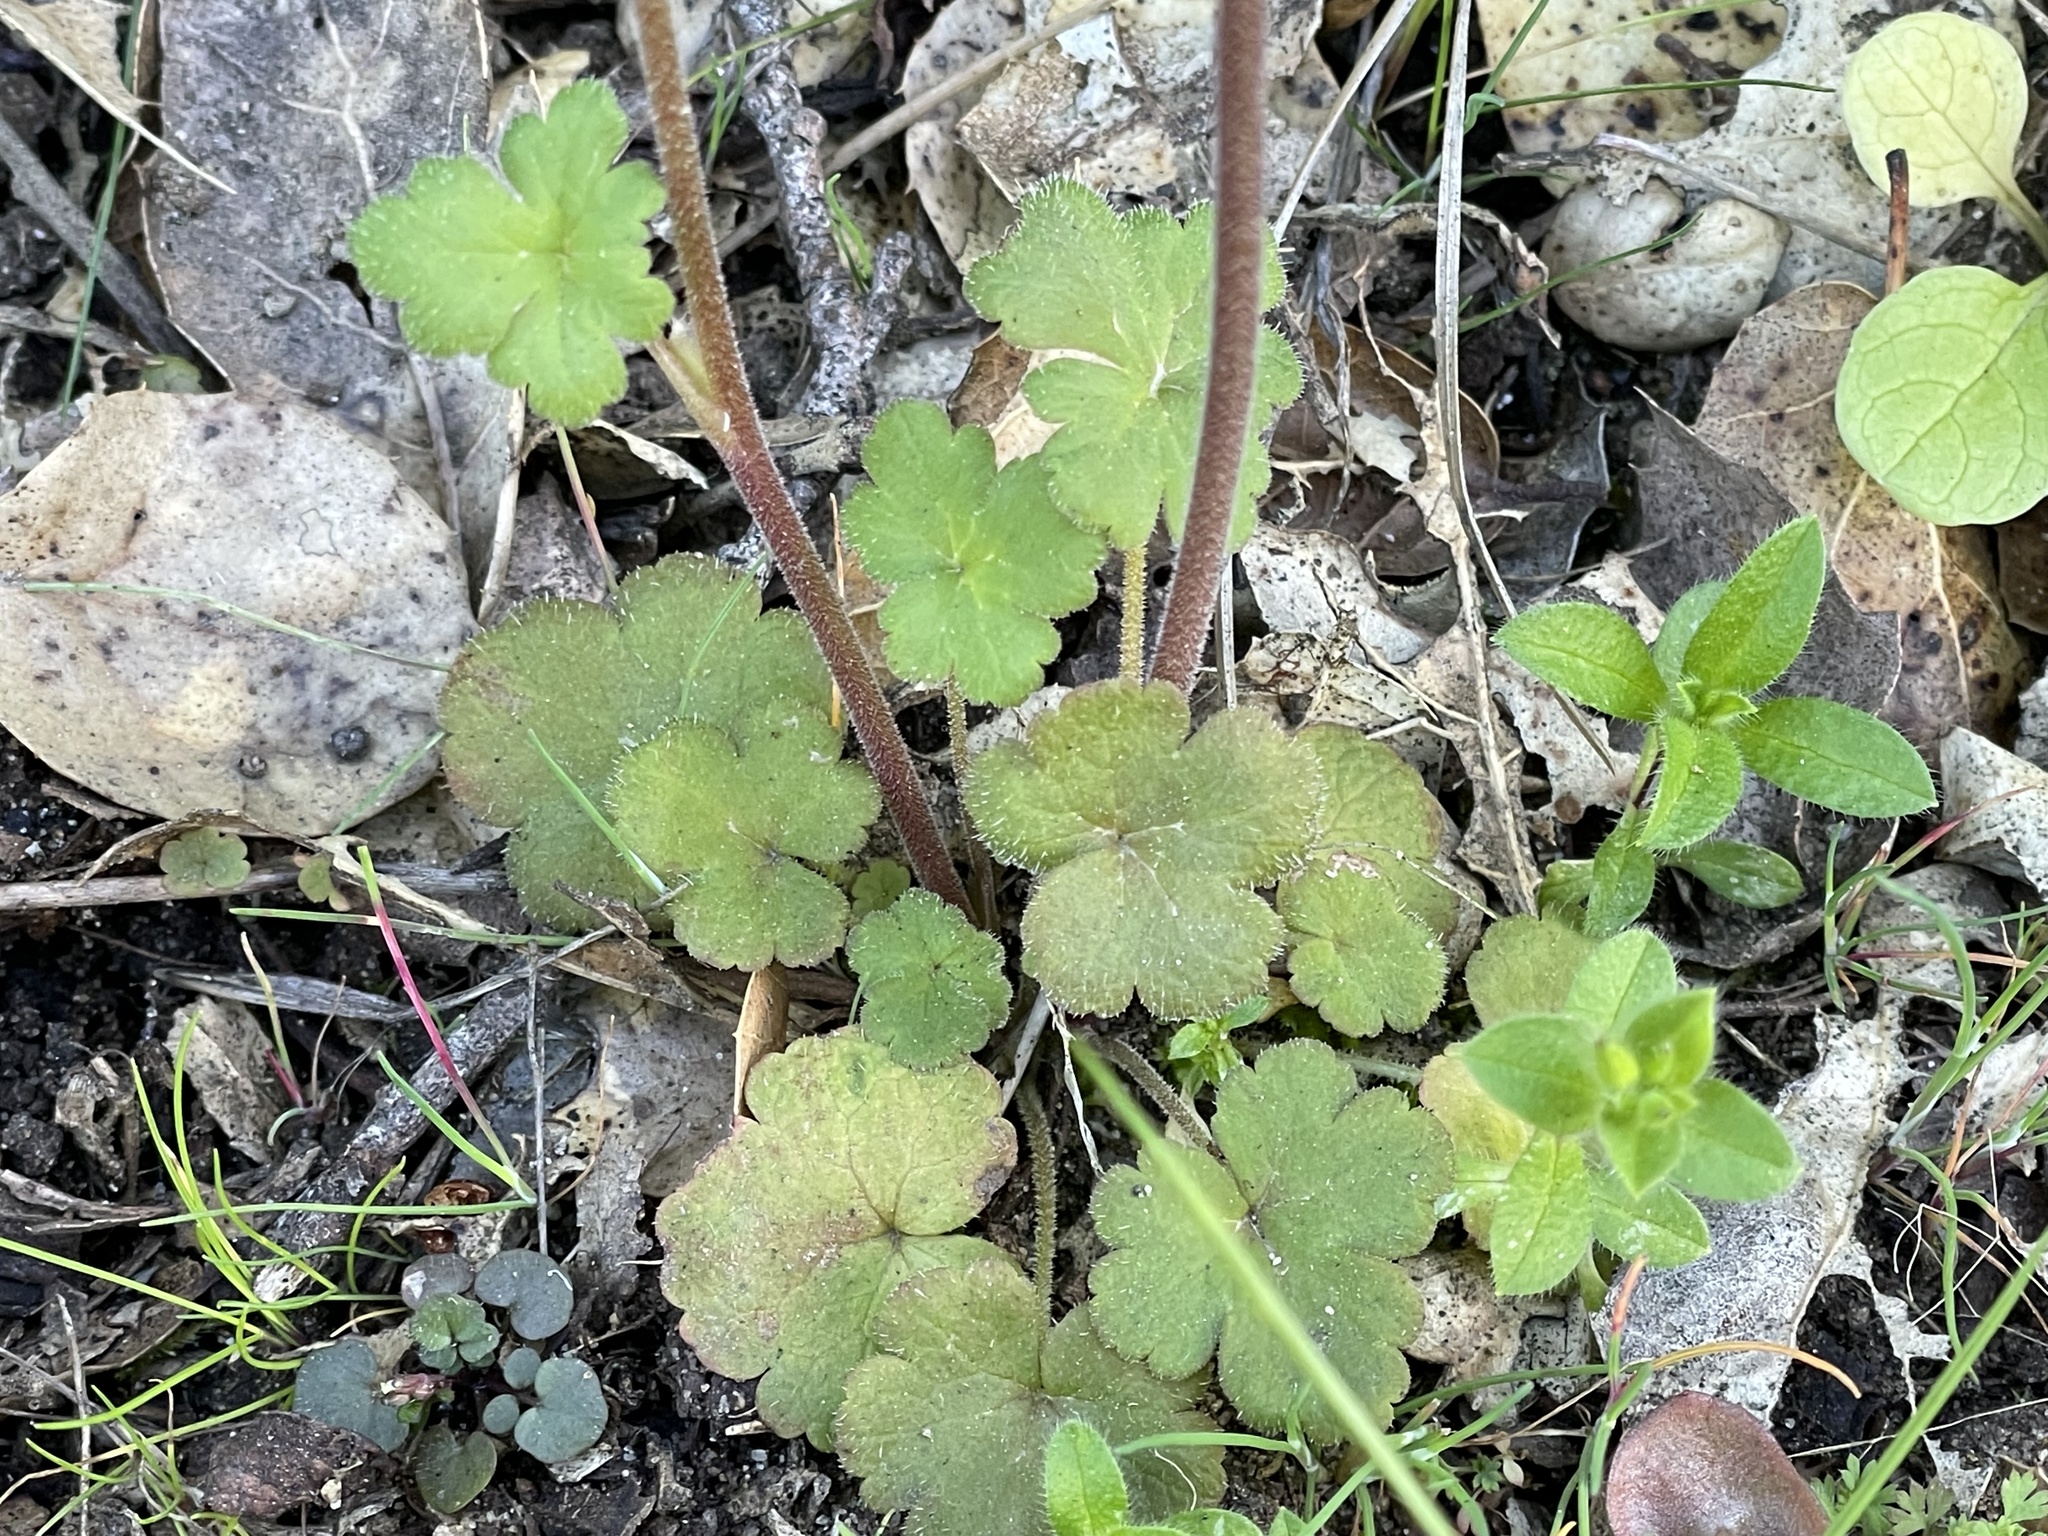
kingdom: Plantae
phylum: Tracheophyta
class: Magnoliopsida
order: Saxifragales
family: Saxifragaceae
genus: Lithophragma
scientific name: Lithophragma affine
